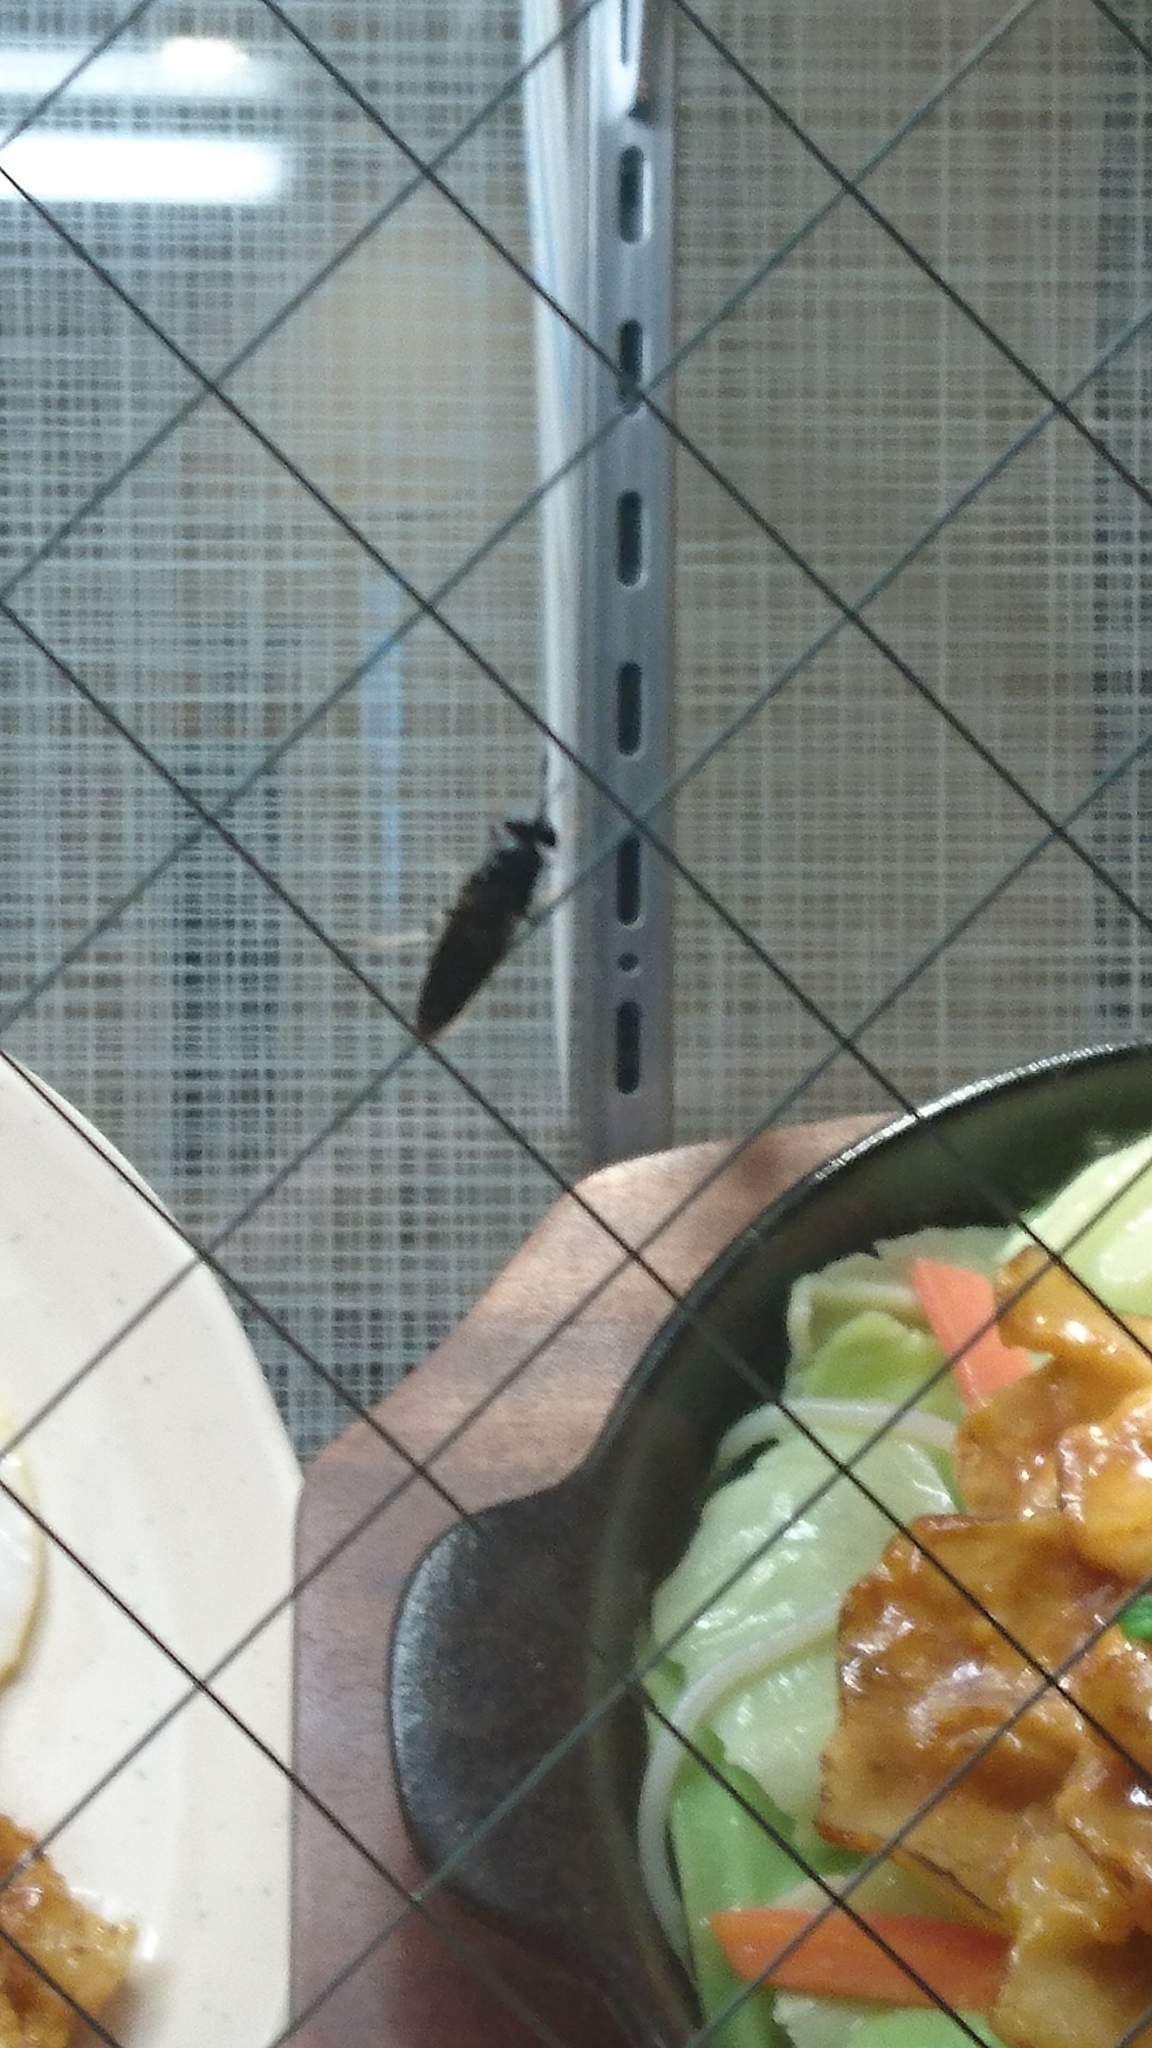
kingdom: Animalia
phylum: Arthropoda
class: Insecta
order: Diptera
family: Stratiomyidae
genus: Hermetia
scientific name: Hermetia illucens
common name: Black soldier fly
